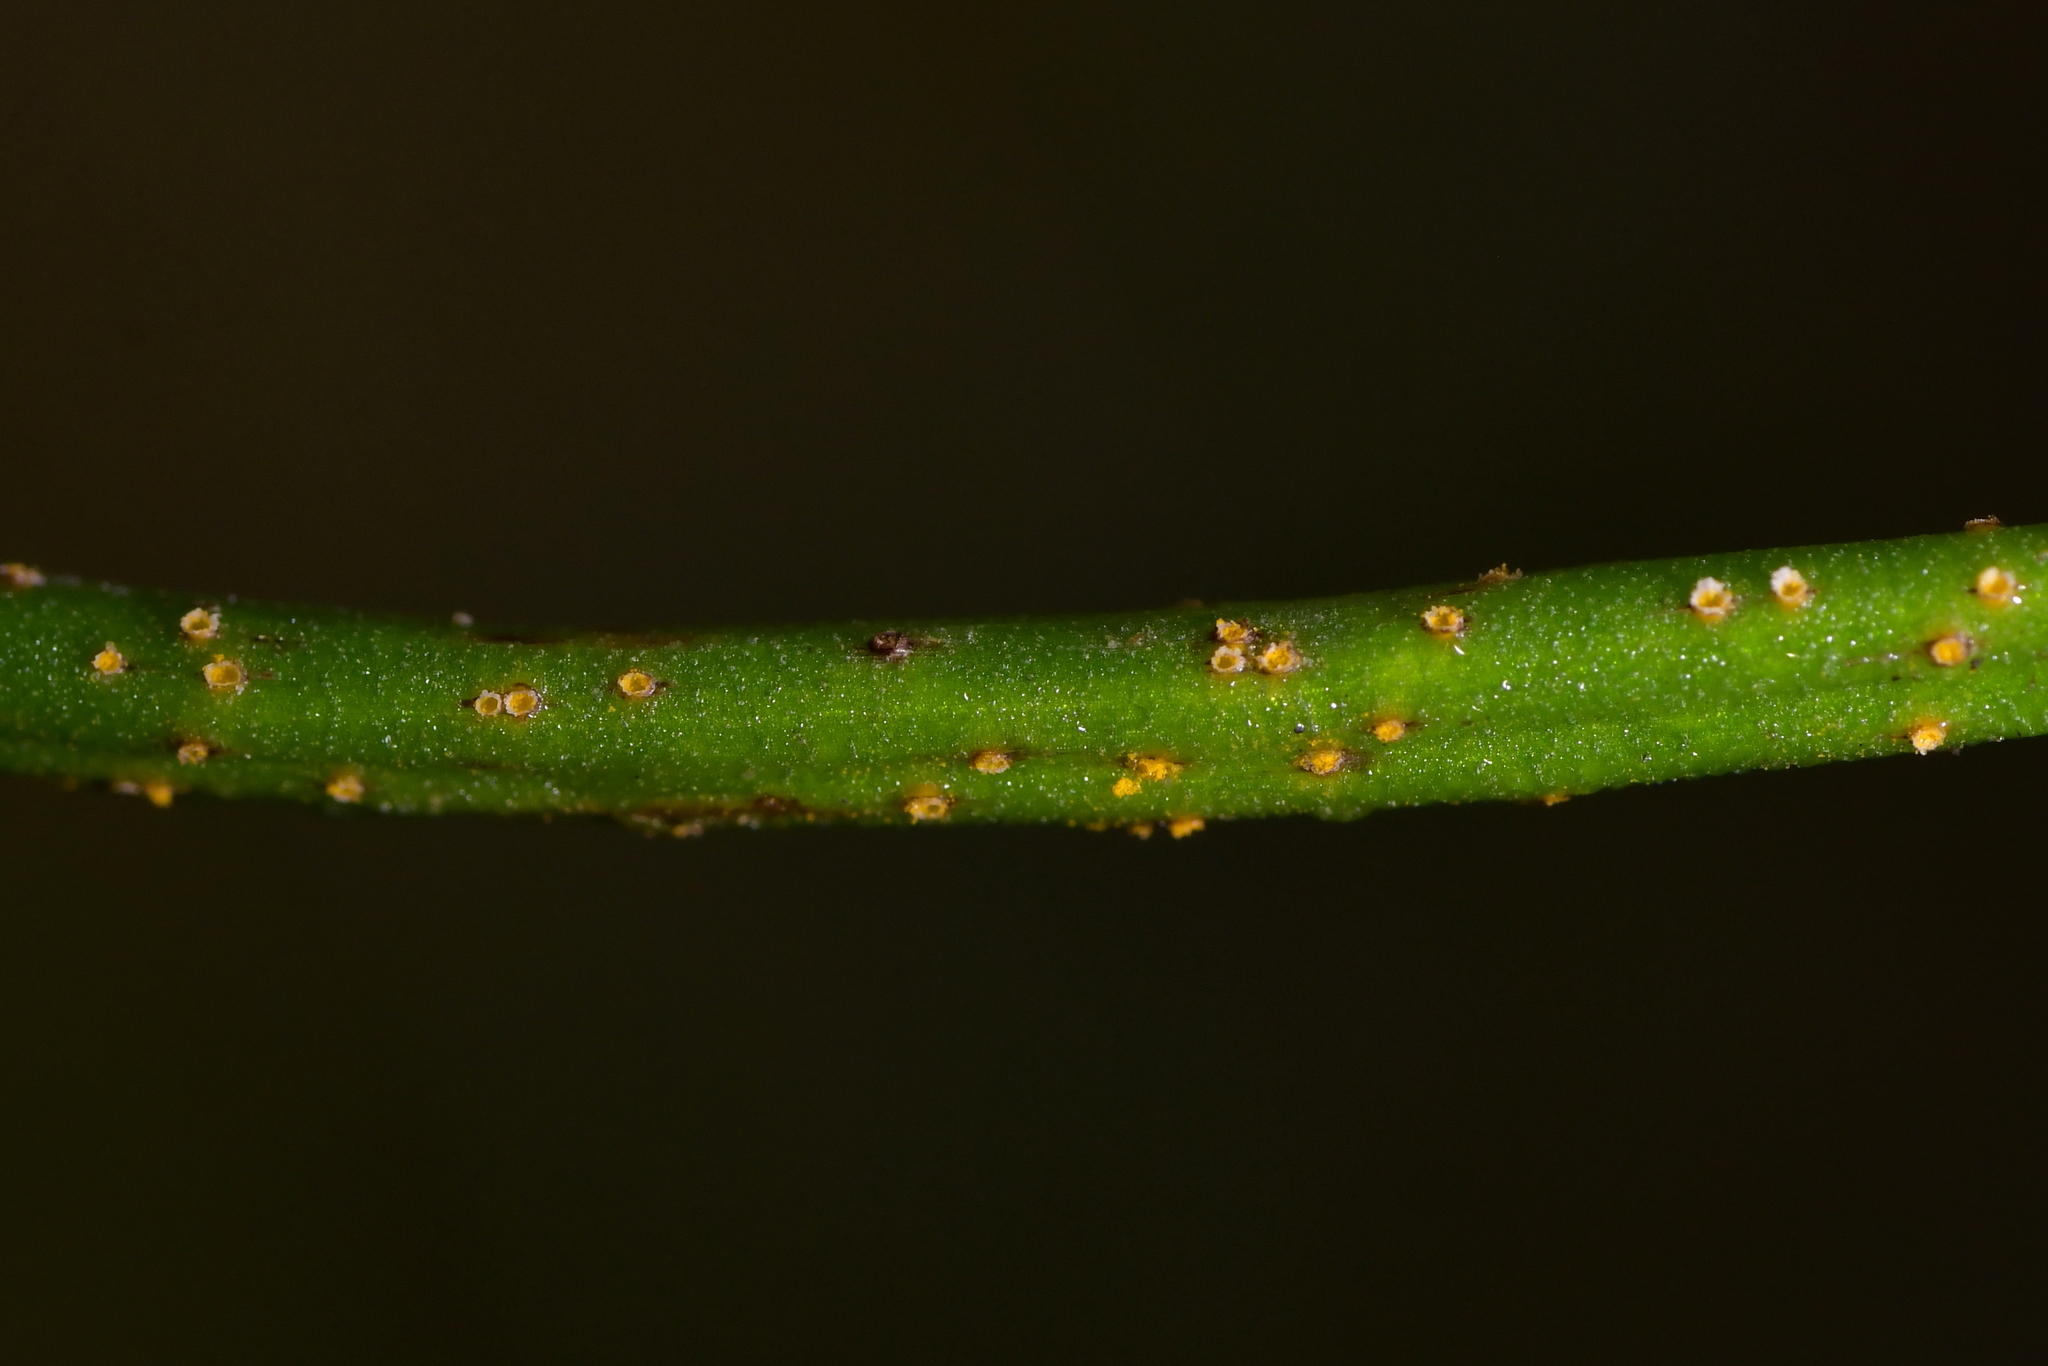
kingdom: Fungi
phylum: Basidiomycota
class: Pucciniomycetes
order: Pucciniales
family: Pucciniaceae
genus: Uromyces
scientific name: Uromyces microtidis
